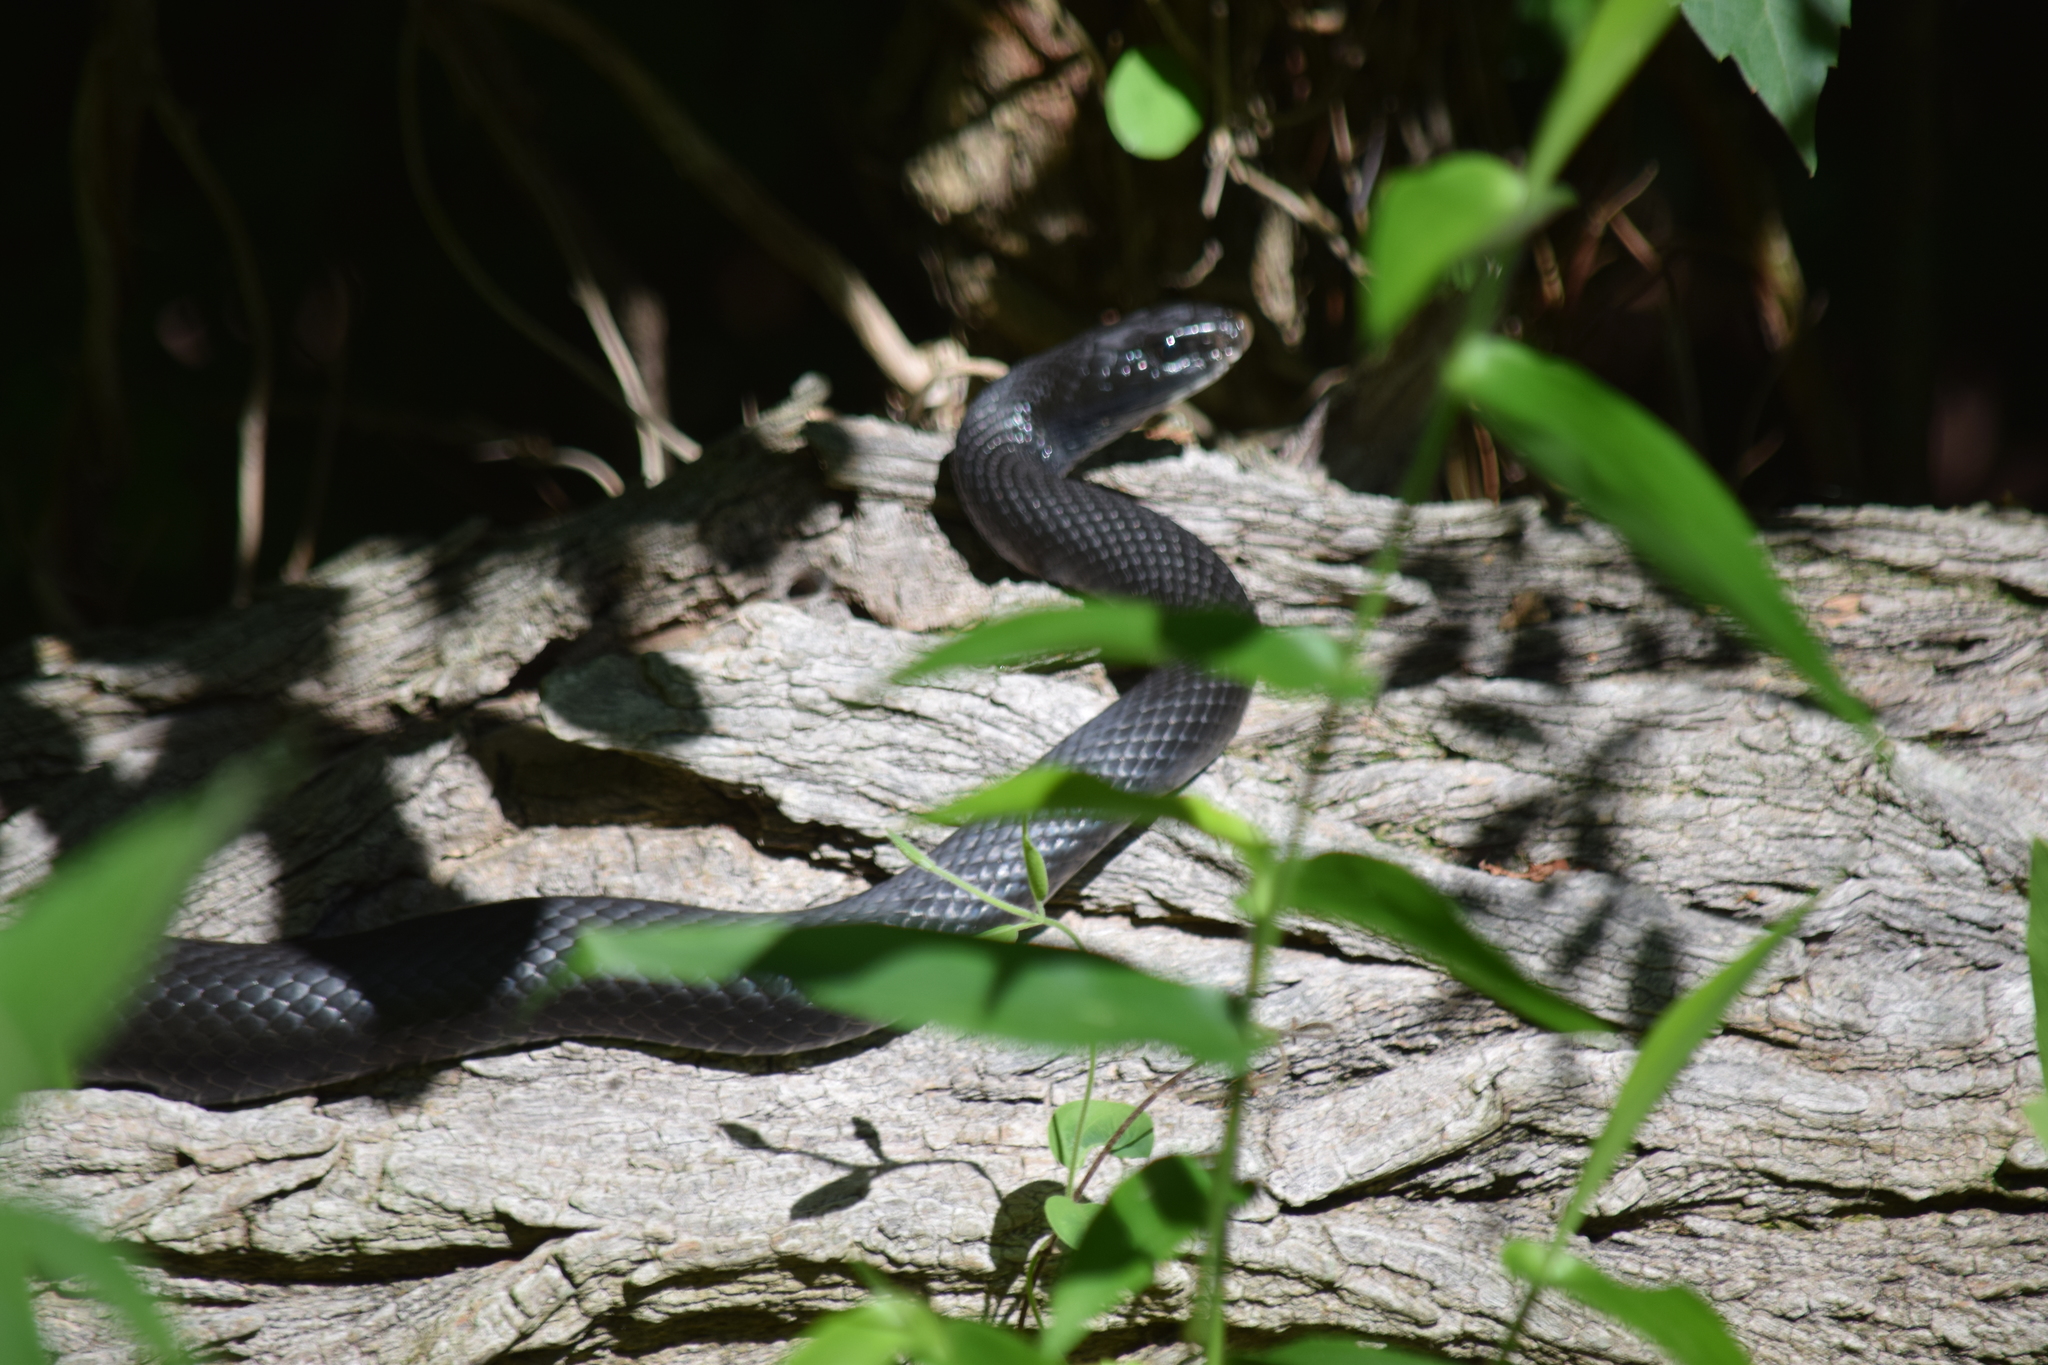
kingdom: Animalia
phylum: Chordata
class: Squamata
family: Colubridae
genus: Coluber
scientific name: Coluber constrictor
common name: Eastern racer
